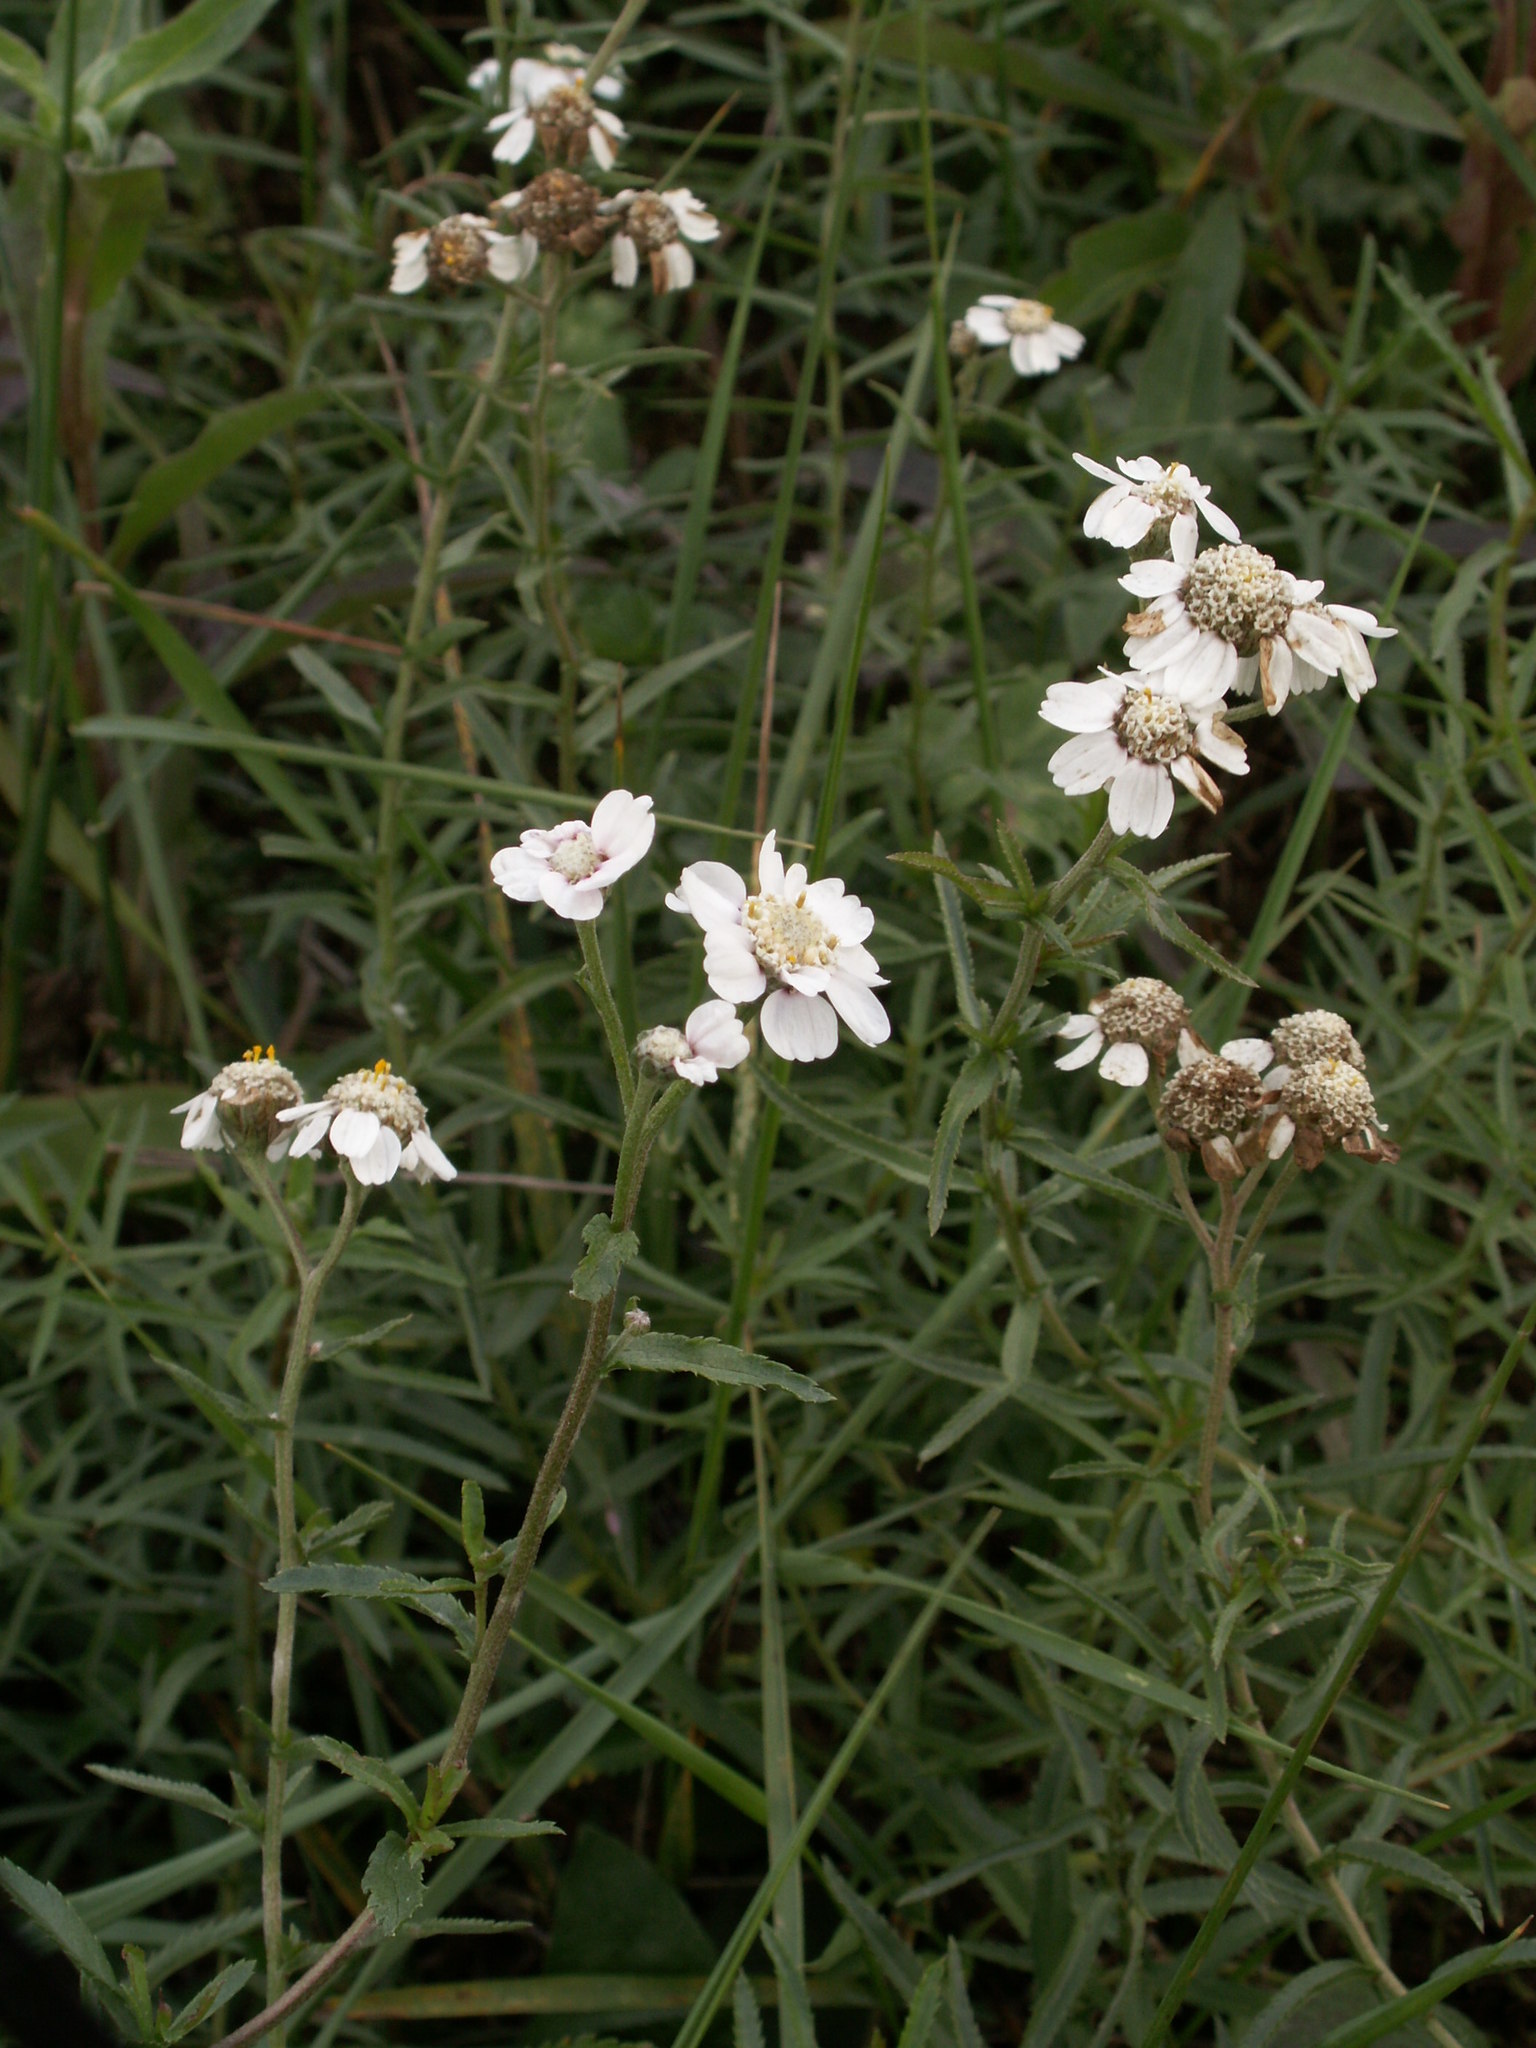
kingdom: Plantae
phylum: Tracheophyta
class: Magnoliopsida
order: Asterales
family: Asteraceae
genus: Achillea
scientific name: Achillea ptarmica
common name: Sneezeweed
